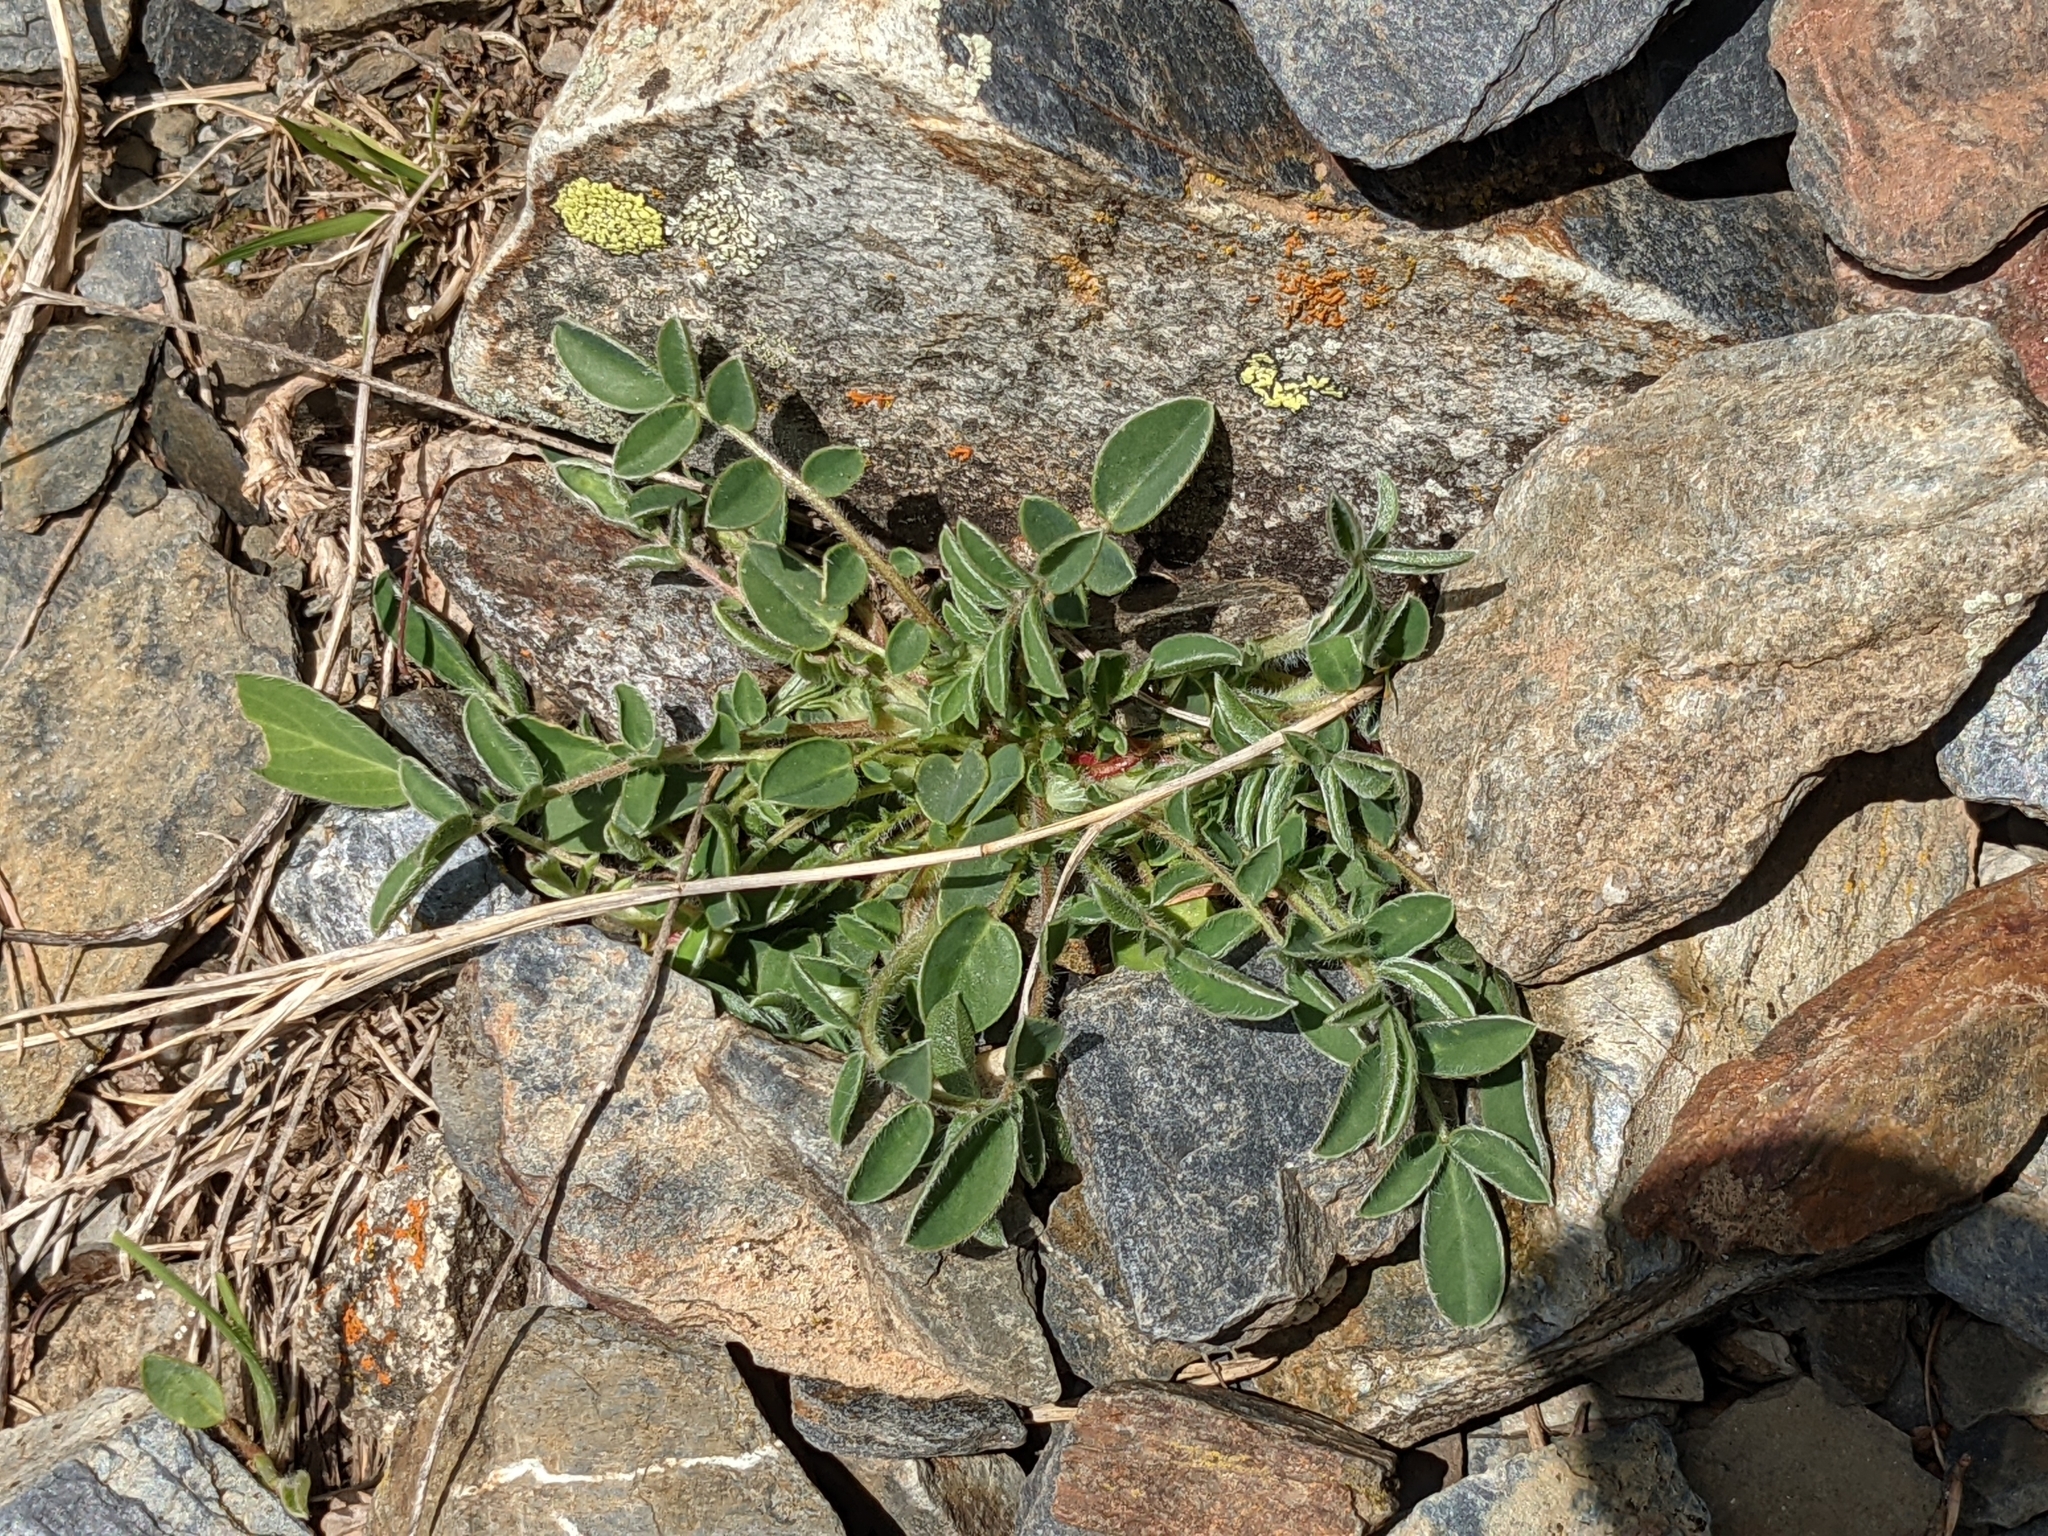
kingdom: Plantae
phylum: Tracheophyta
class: Magnoliopsida
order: Fabales
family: Fabaceae
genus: Anthyllis
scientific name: Anthyllis vulneraria
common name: Kidney vetch
